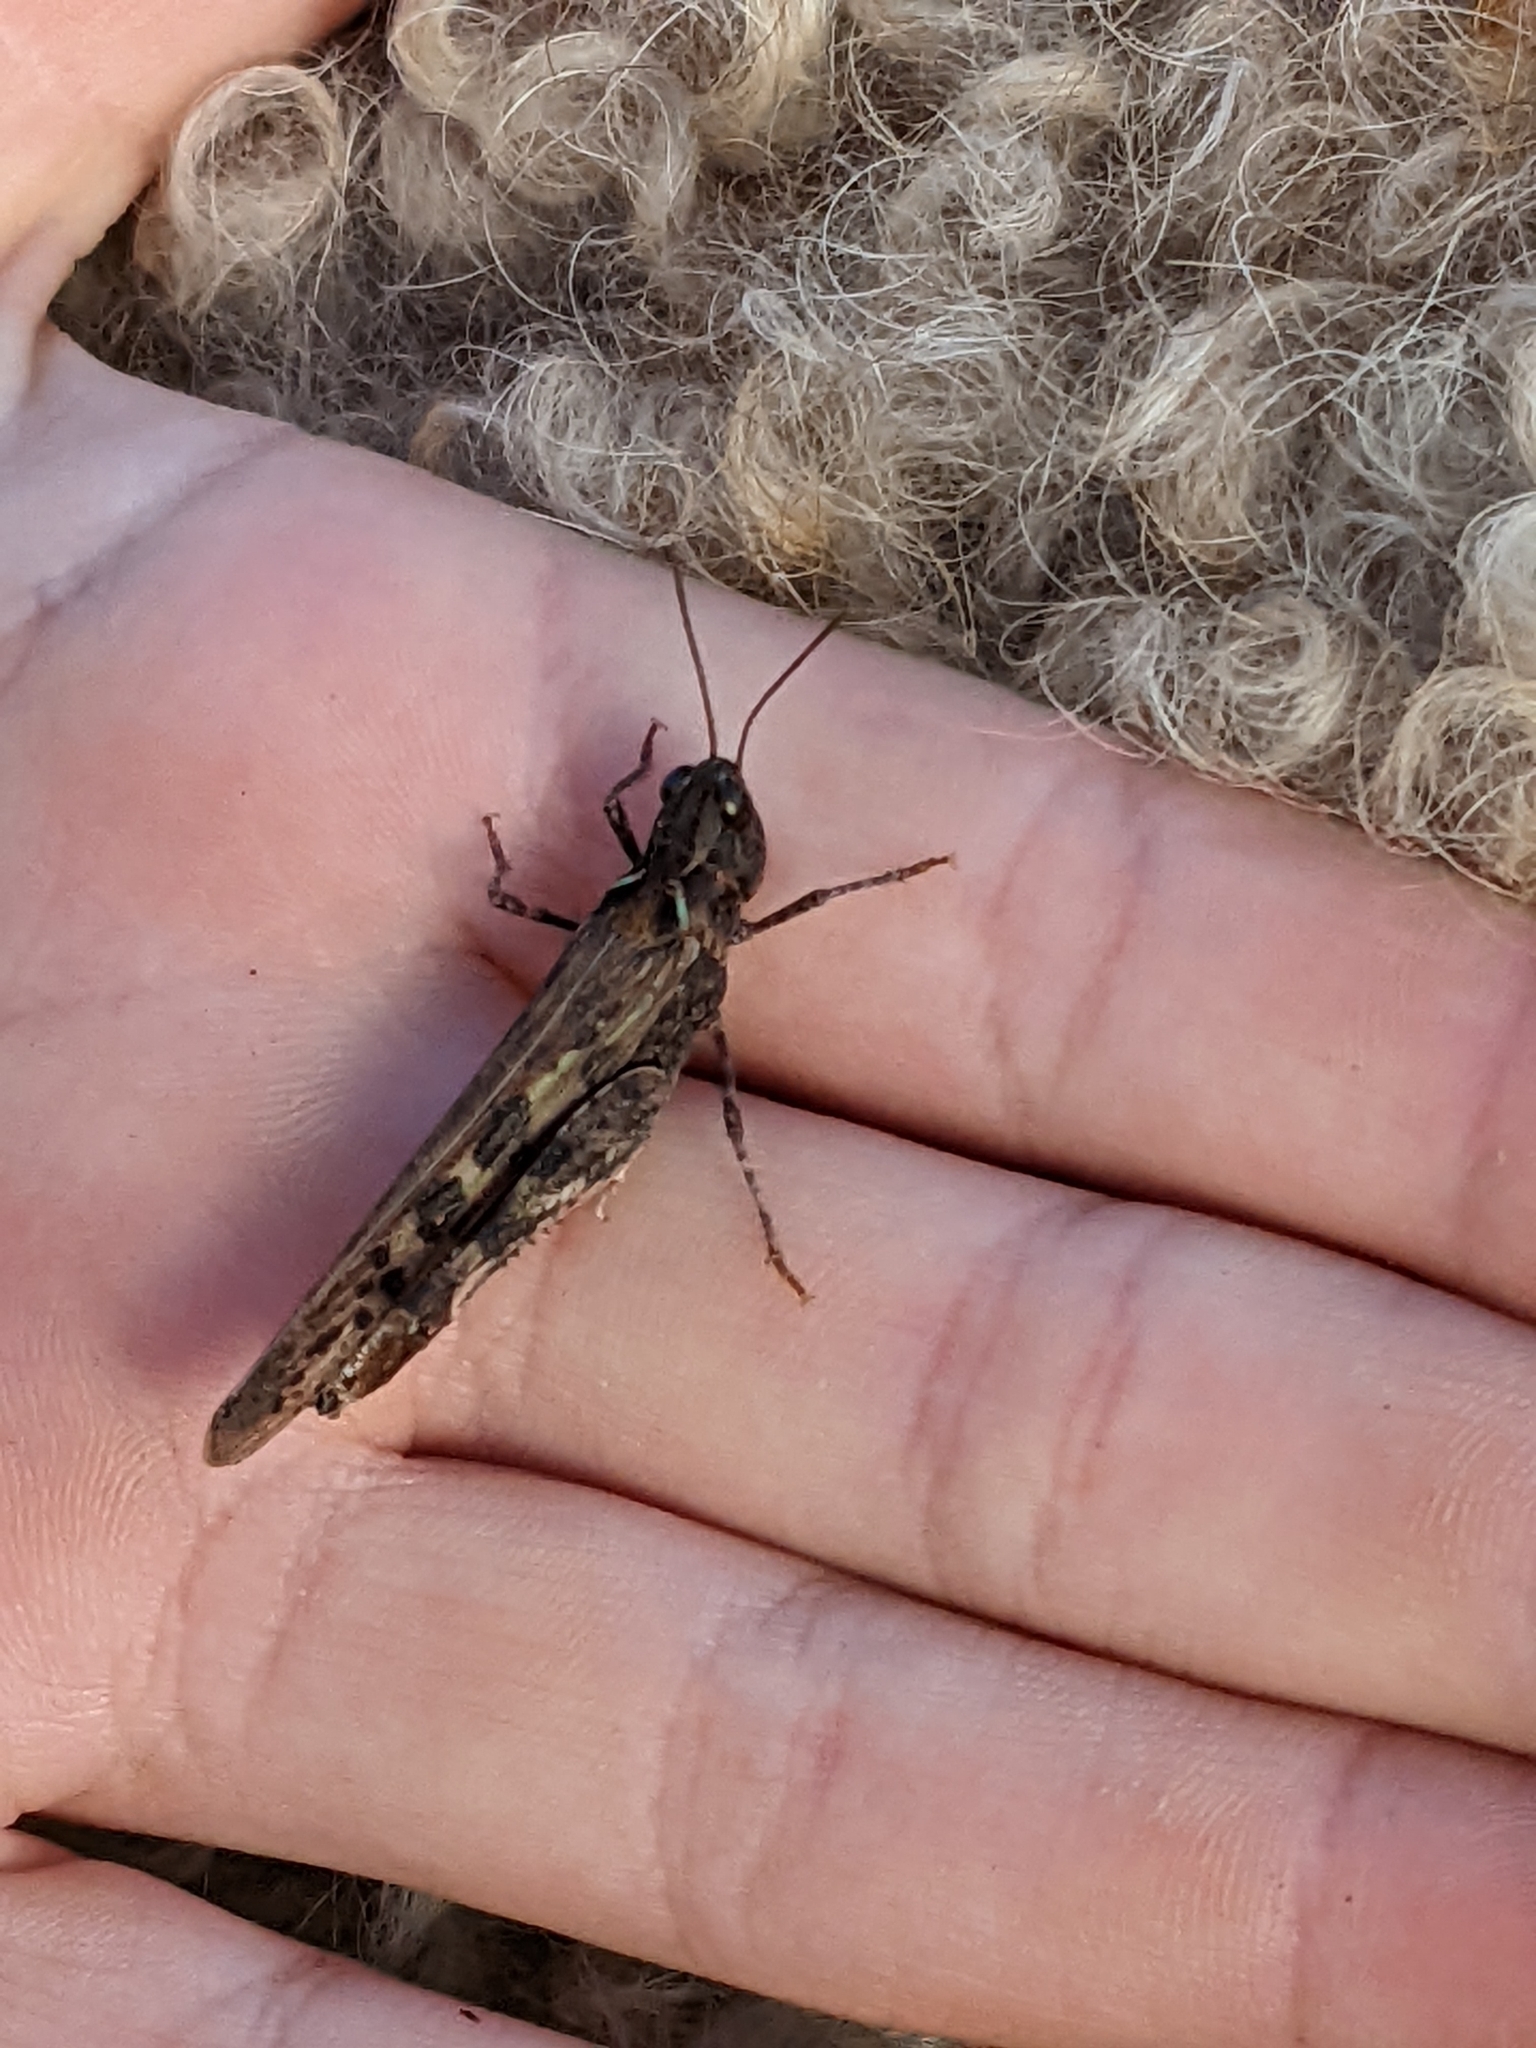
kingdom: Animalia
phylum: Arthropoda
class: Insecta
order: Orthoptera
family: Acrididae
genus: Chortoicetes
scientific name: Chortoicetes terminifera
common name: Australian plague locust
